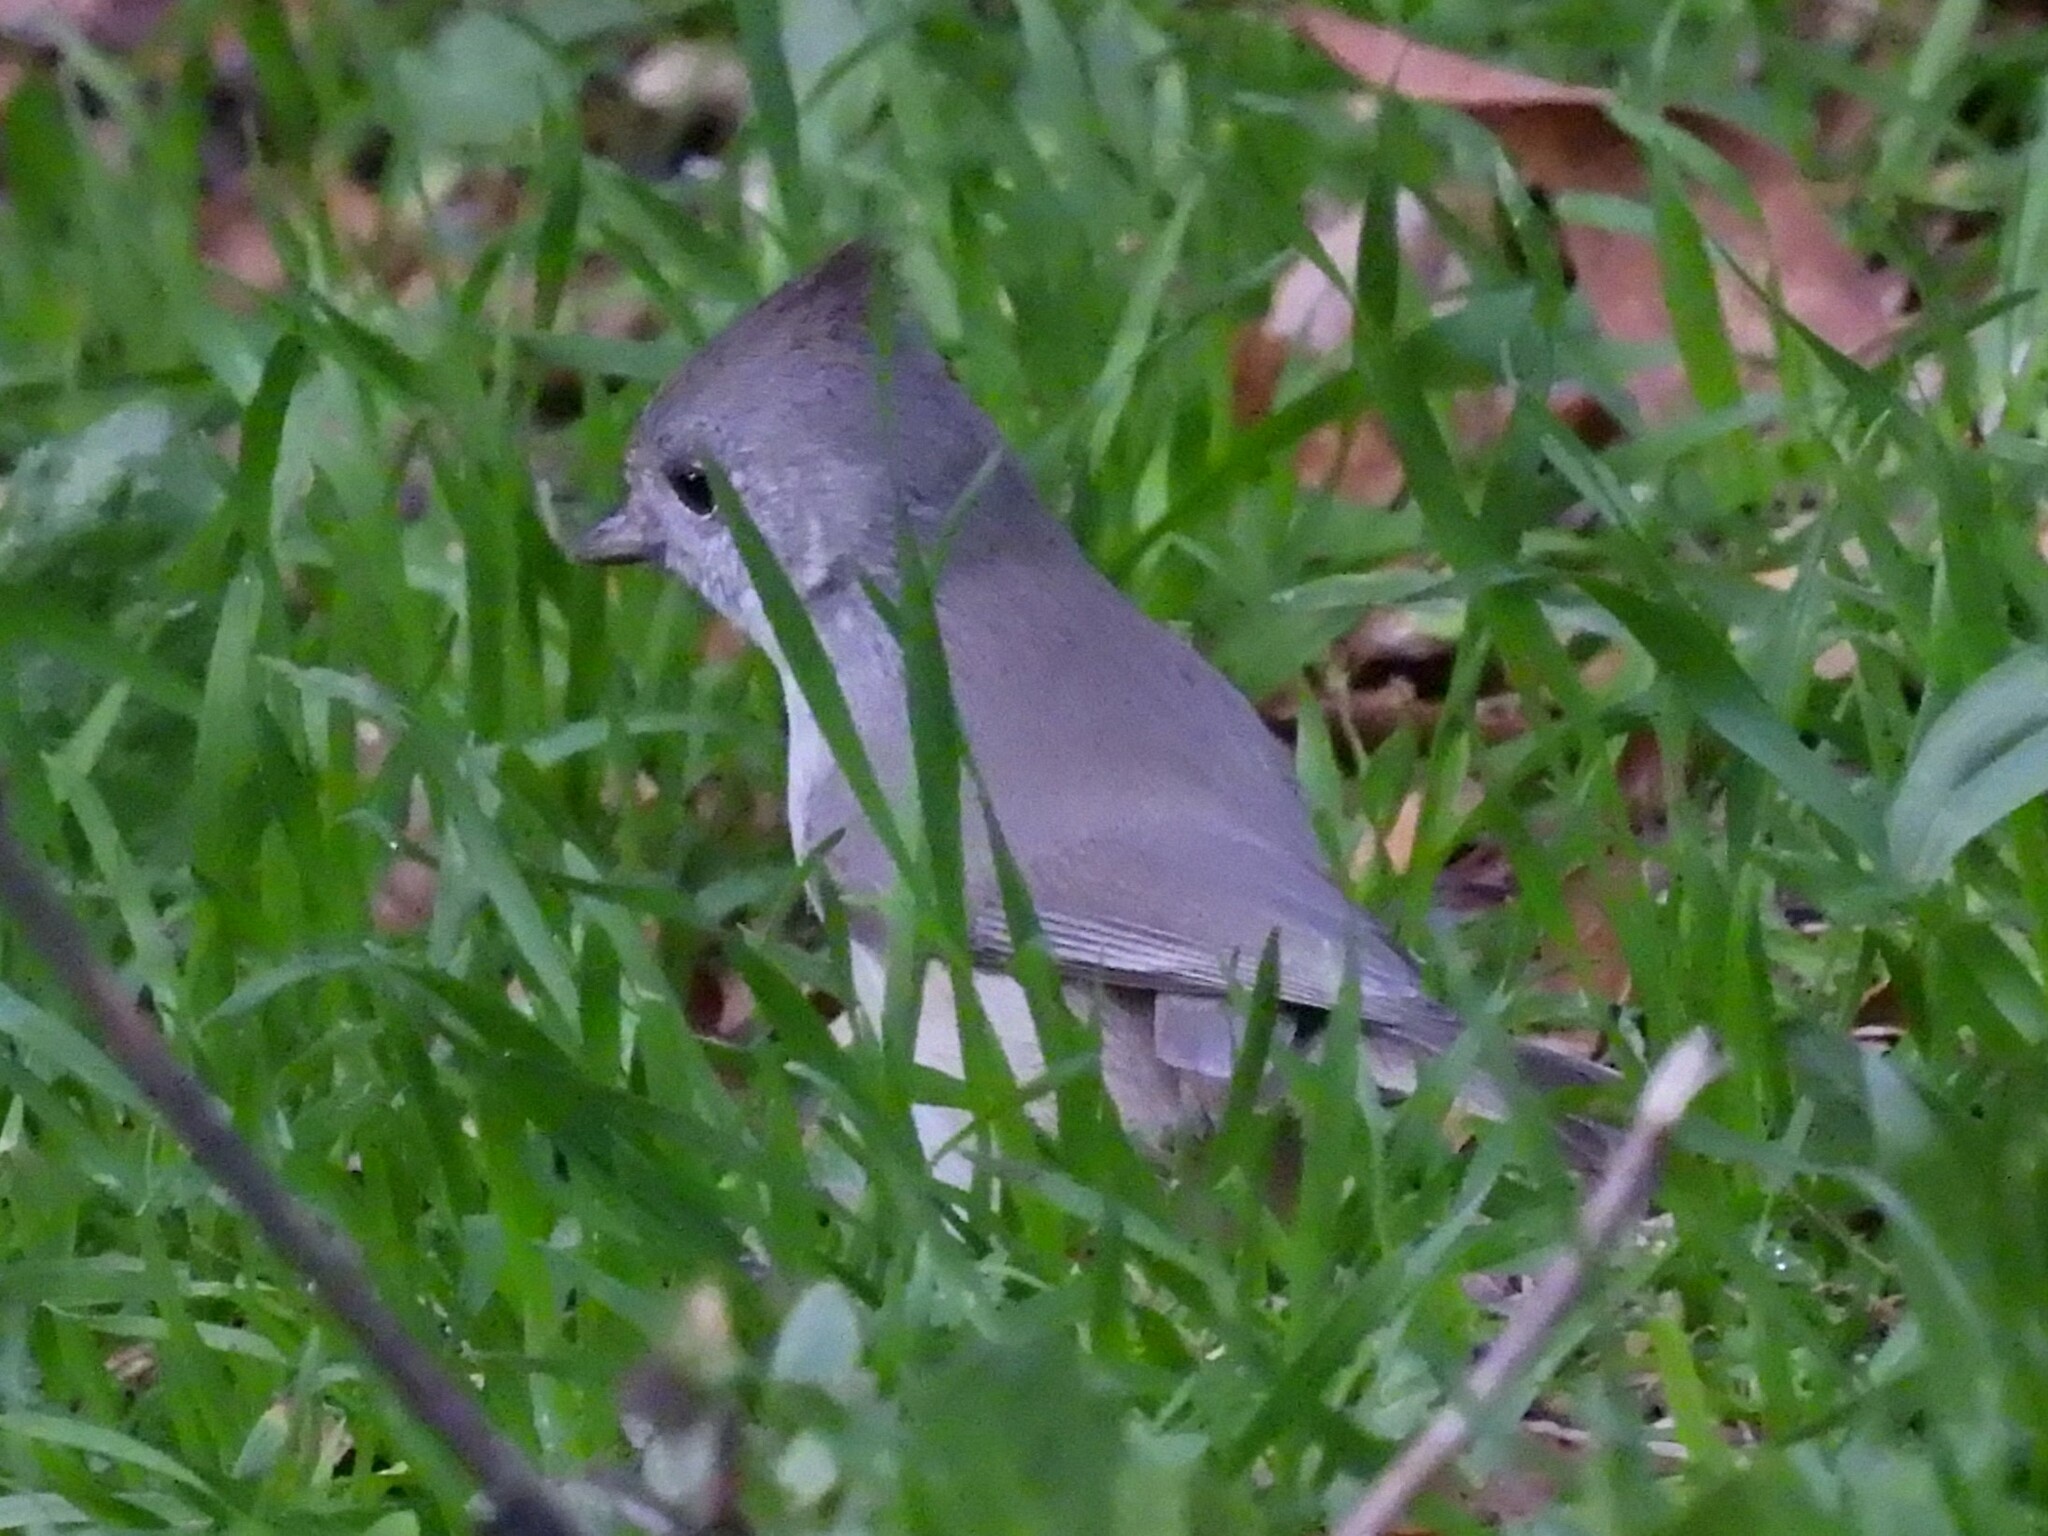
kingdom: Animalia
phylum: Chordata
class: Aves
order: Passeriformes
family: Paridae
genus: Baeolophus
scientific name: Baeolophus inornatus
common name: Oak titmouse
